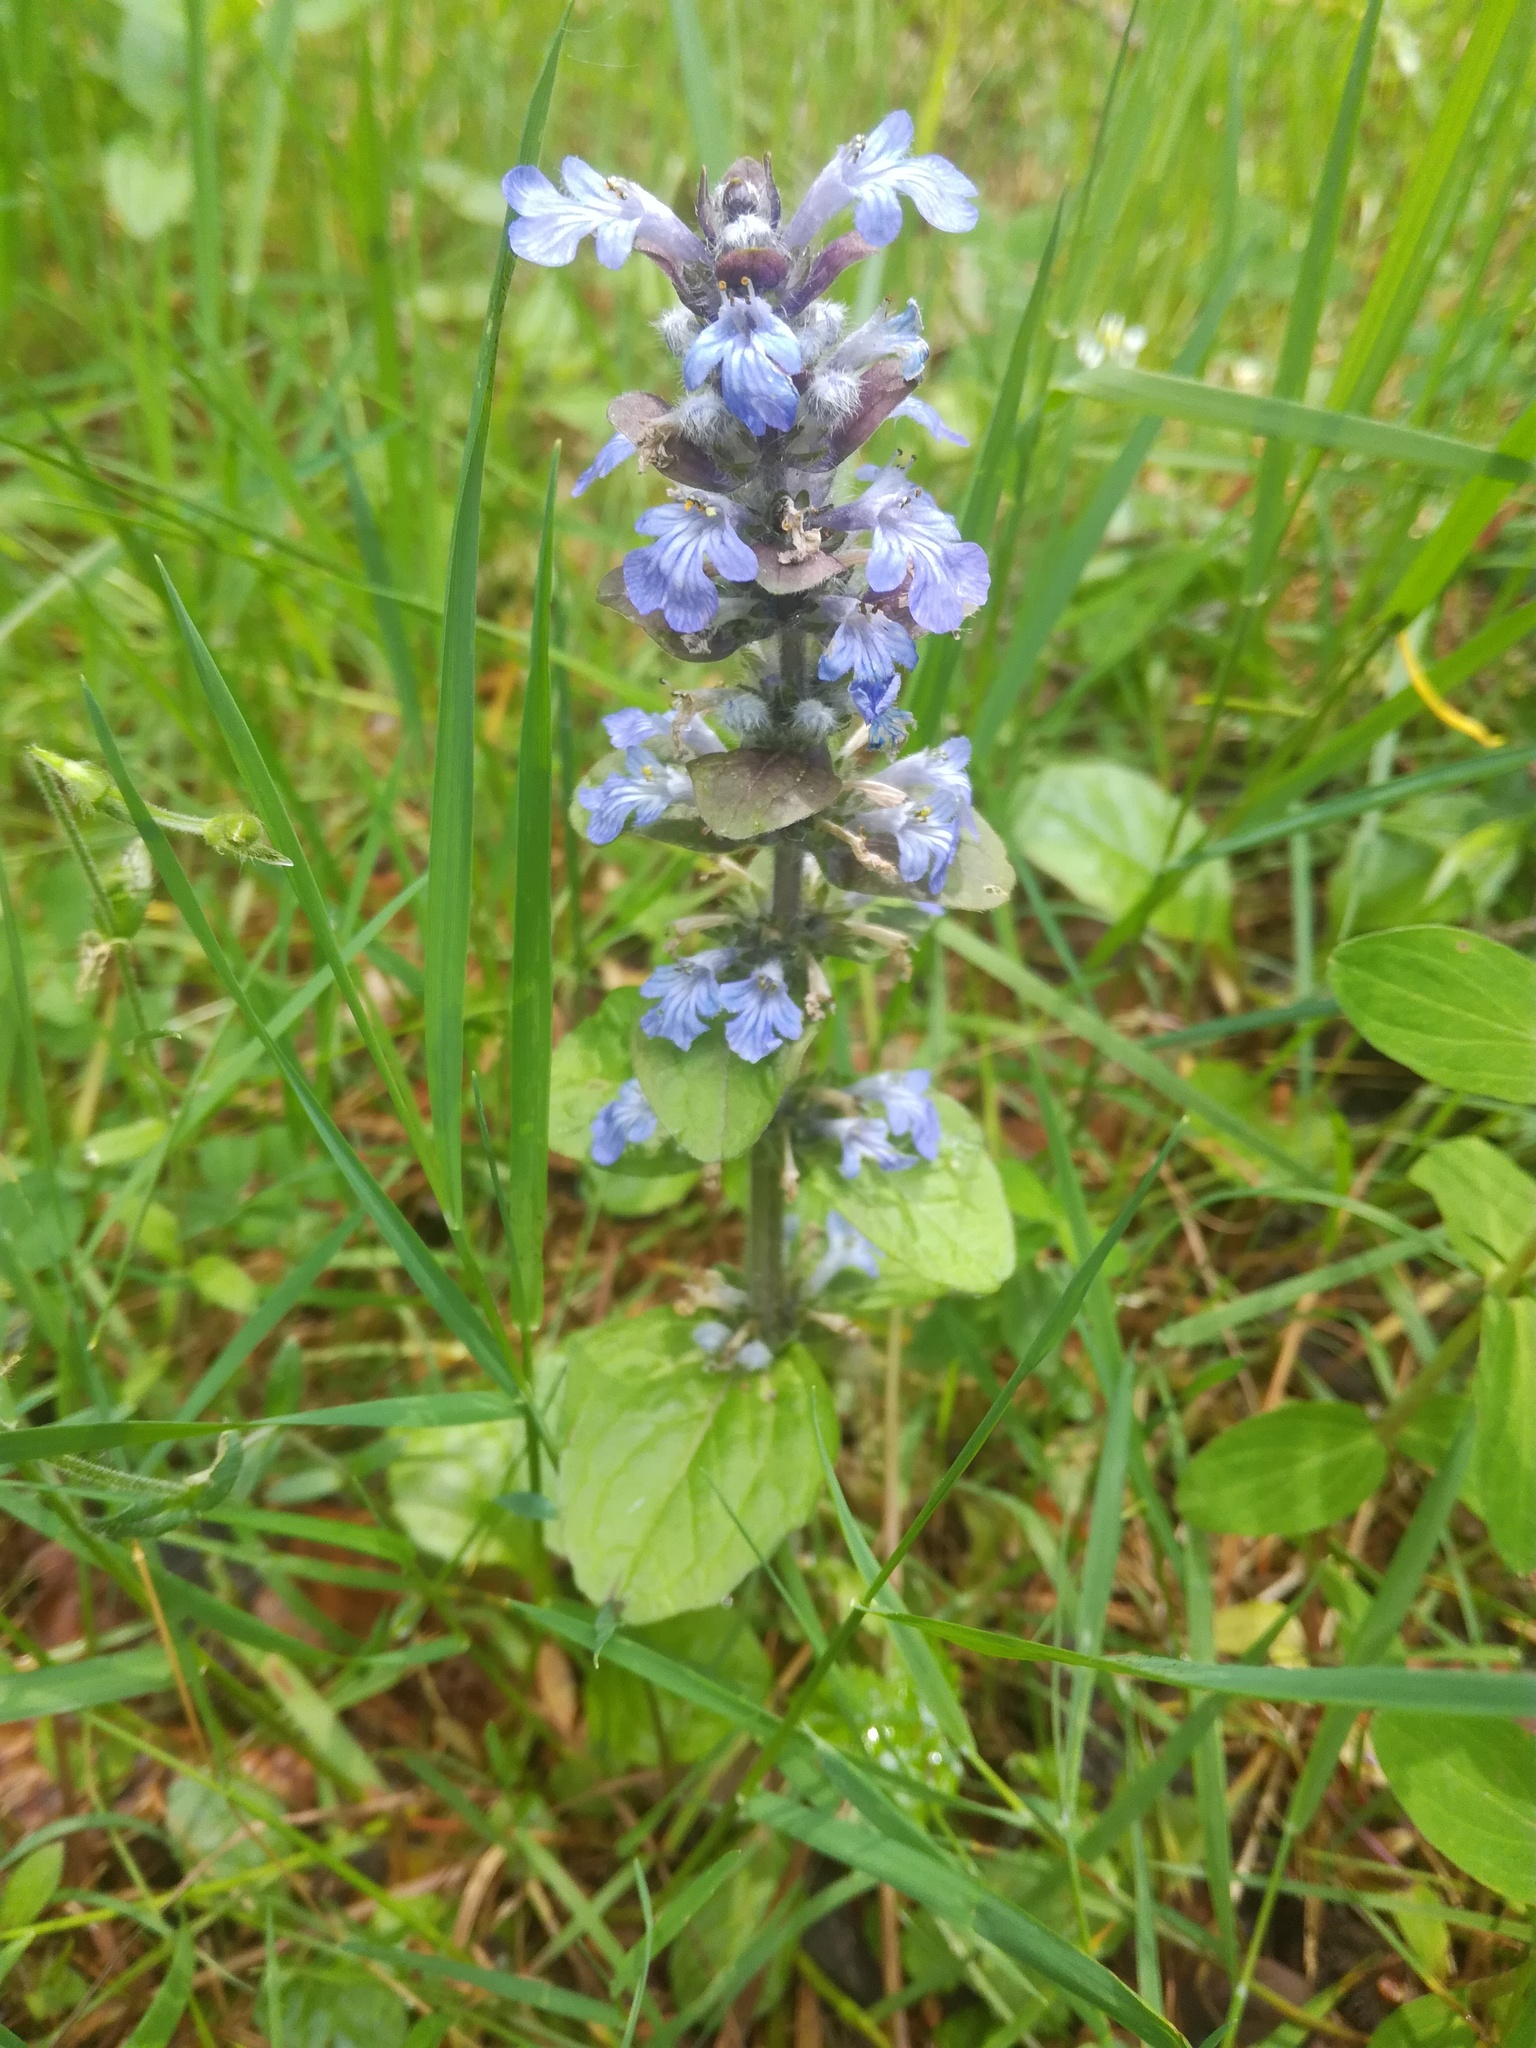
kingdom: Plantae
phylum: Tracheophyta
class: Magnoliopsida
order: Lamiales
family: Lamiaceae
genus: Ajuga
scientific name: Ajuga reptans
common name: Bugle
